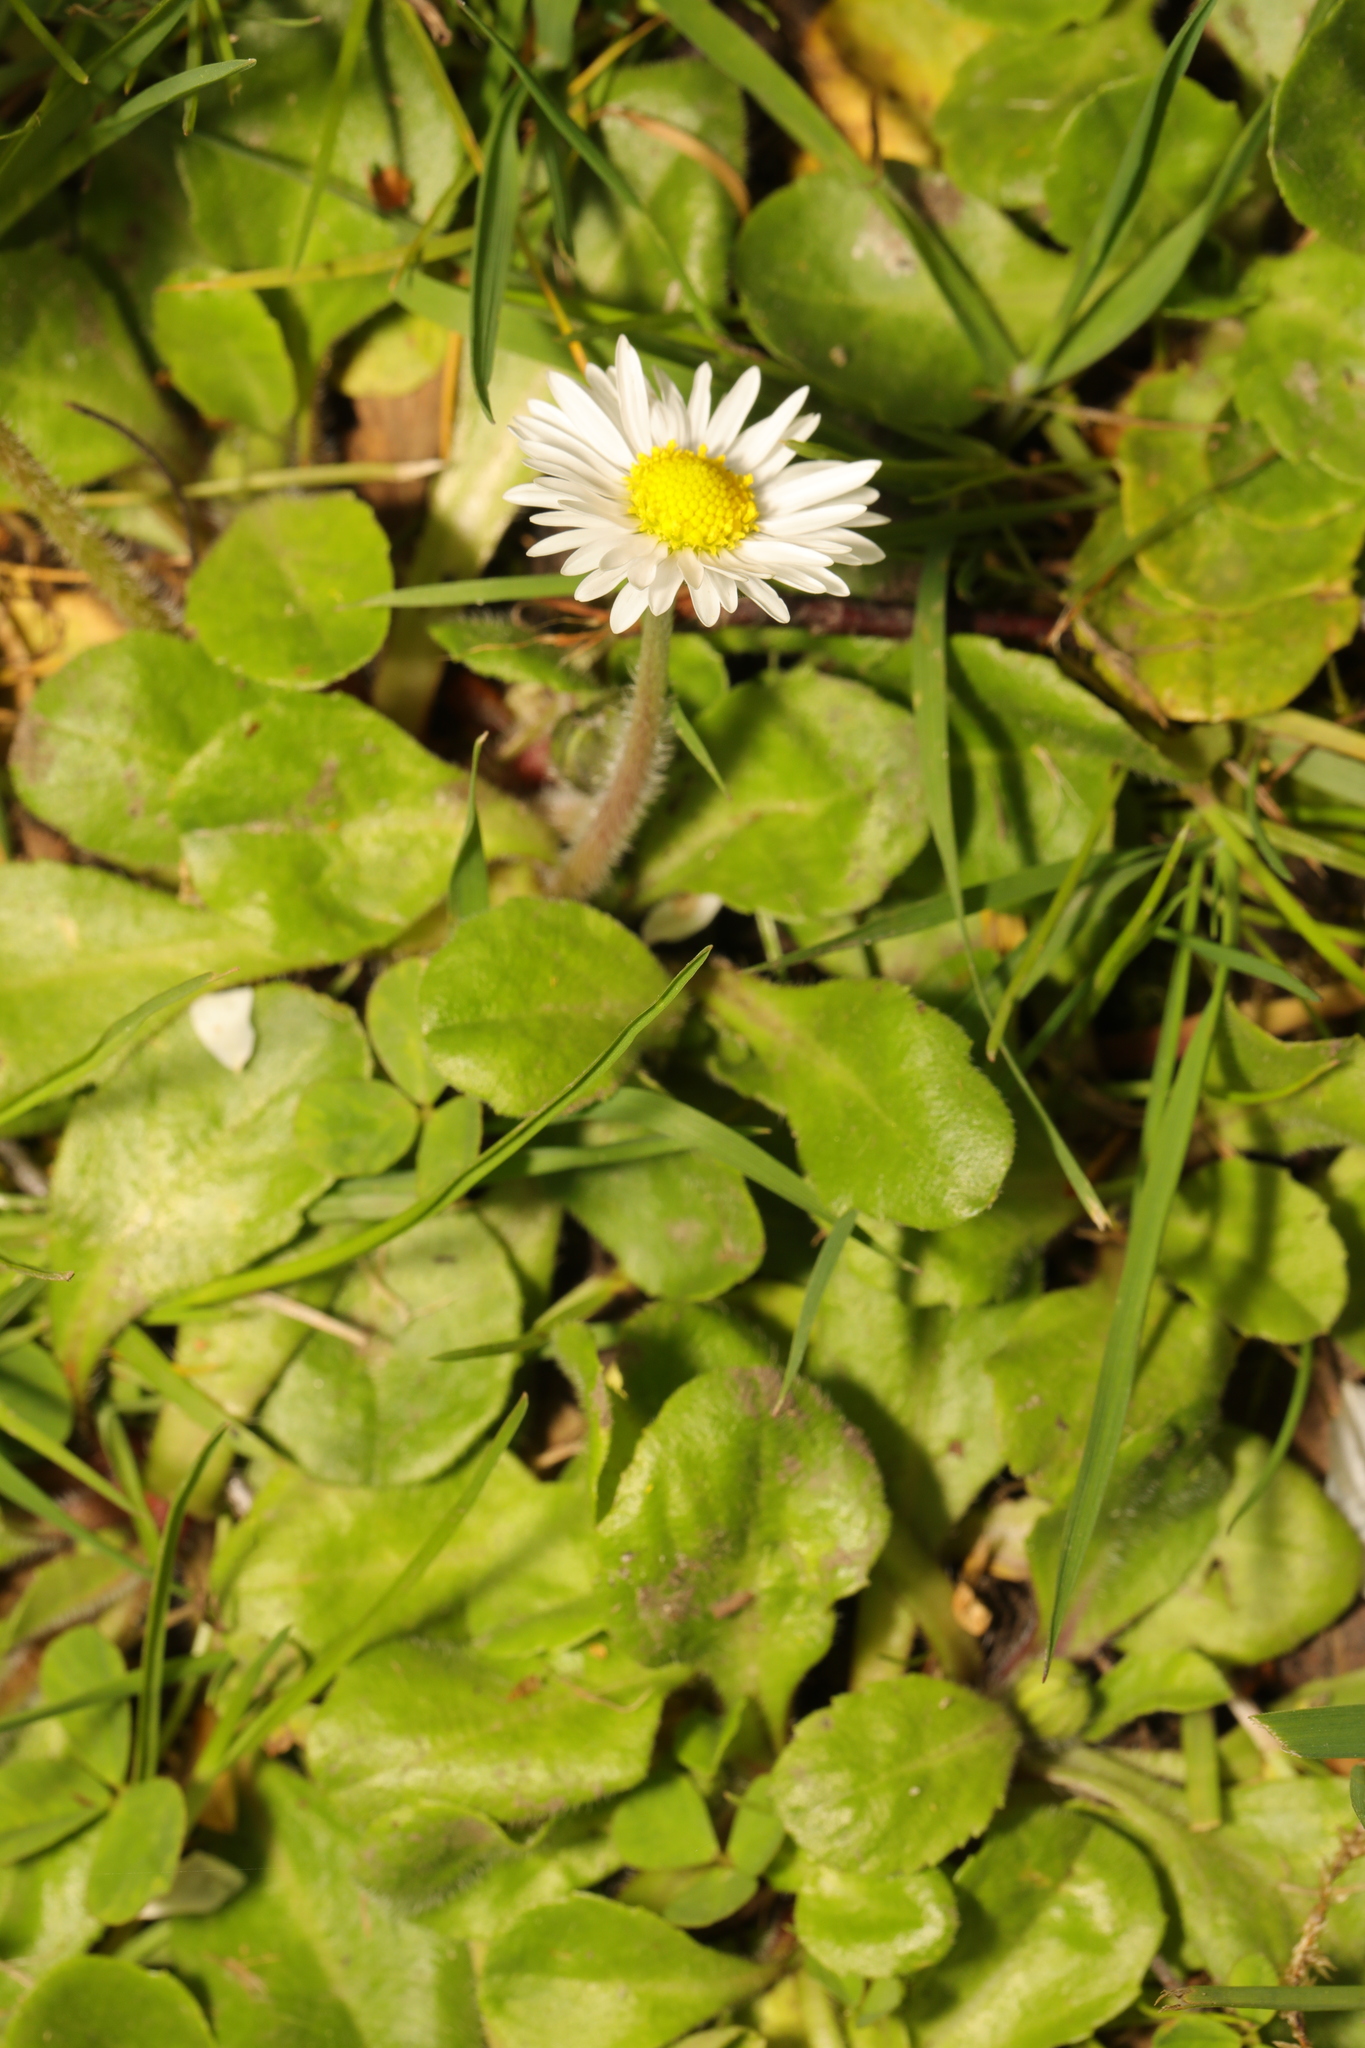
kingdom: Plantae
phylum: Tracheophyta
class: Magnoliopsida
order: Asterales
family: Asteraceae
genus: Bellis
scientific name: Bellis perennis
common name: Lawndaisy
